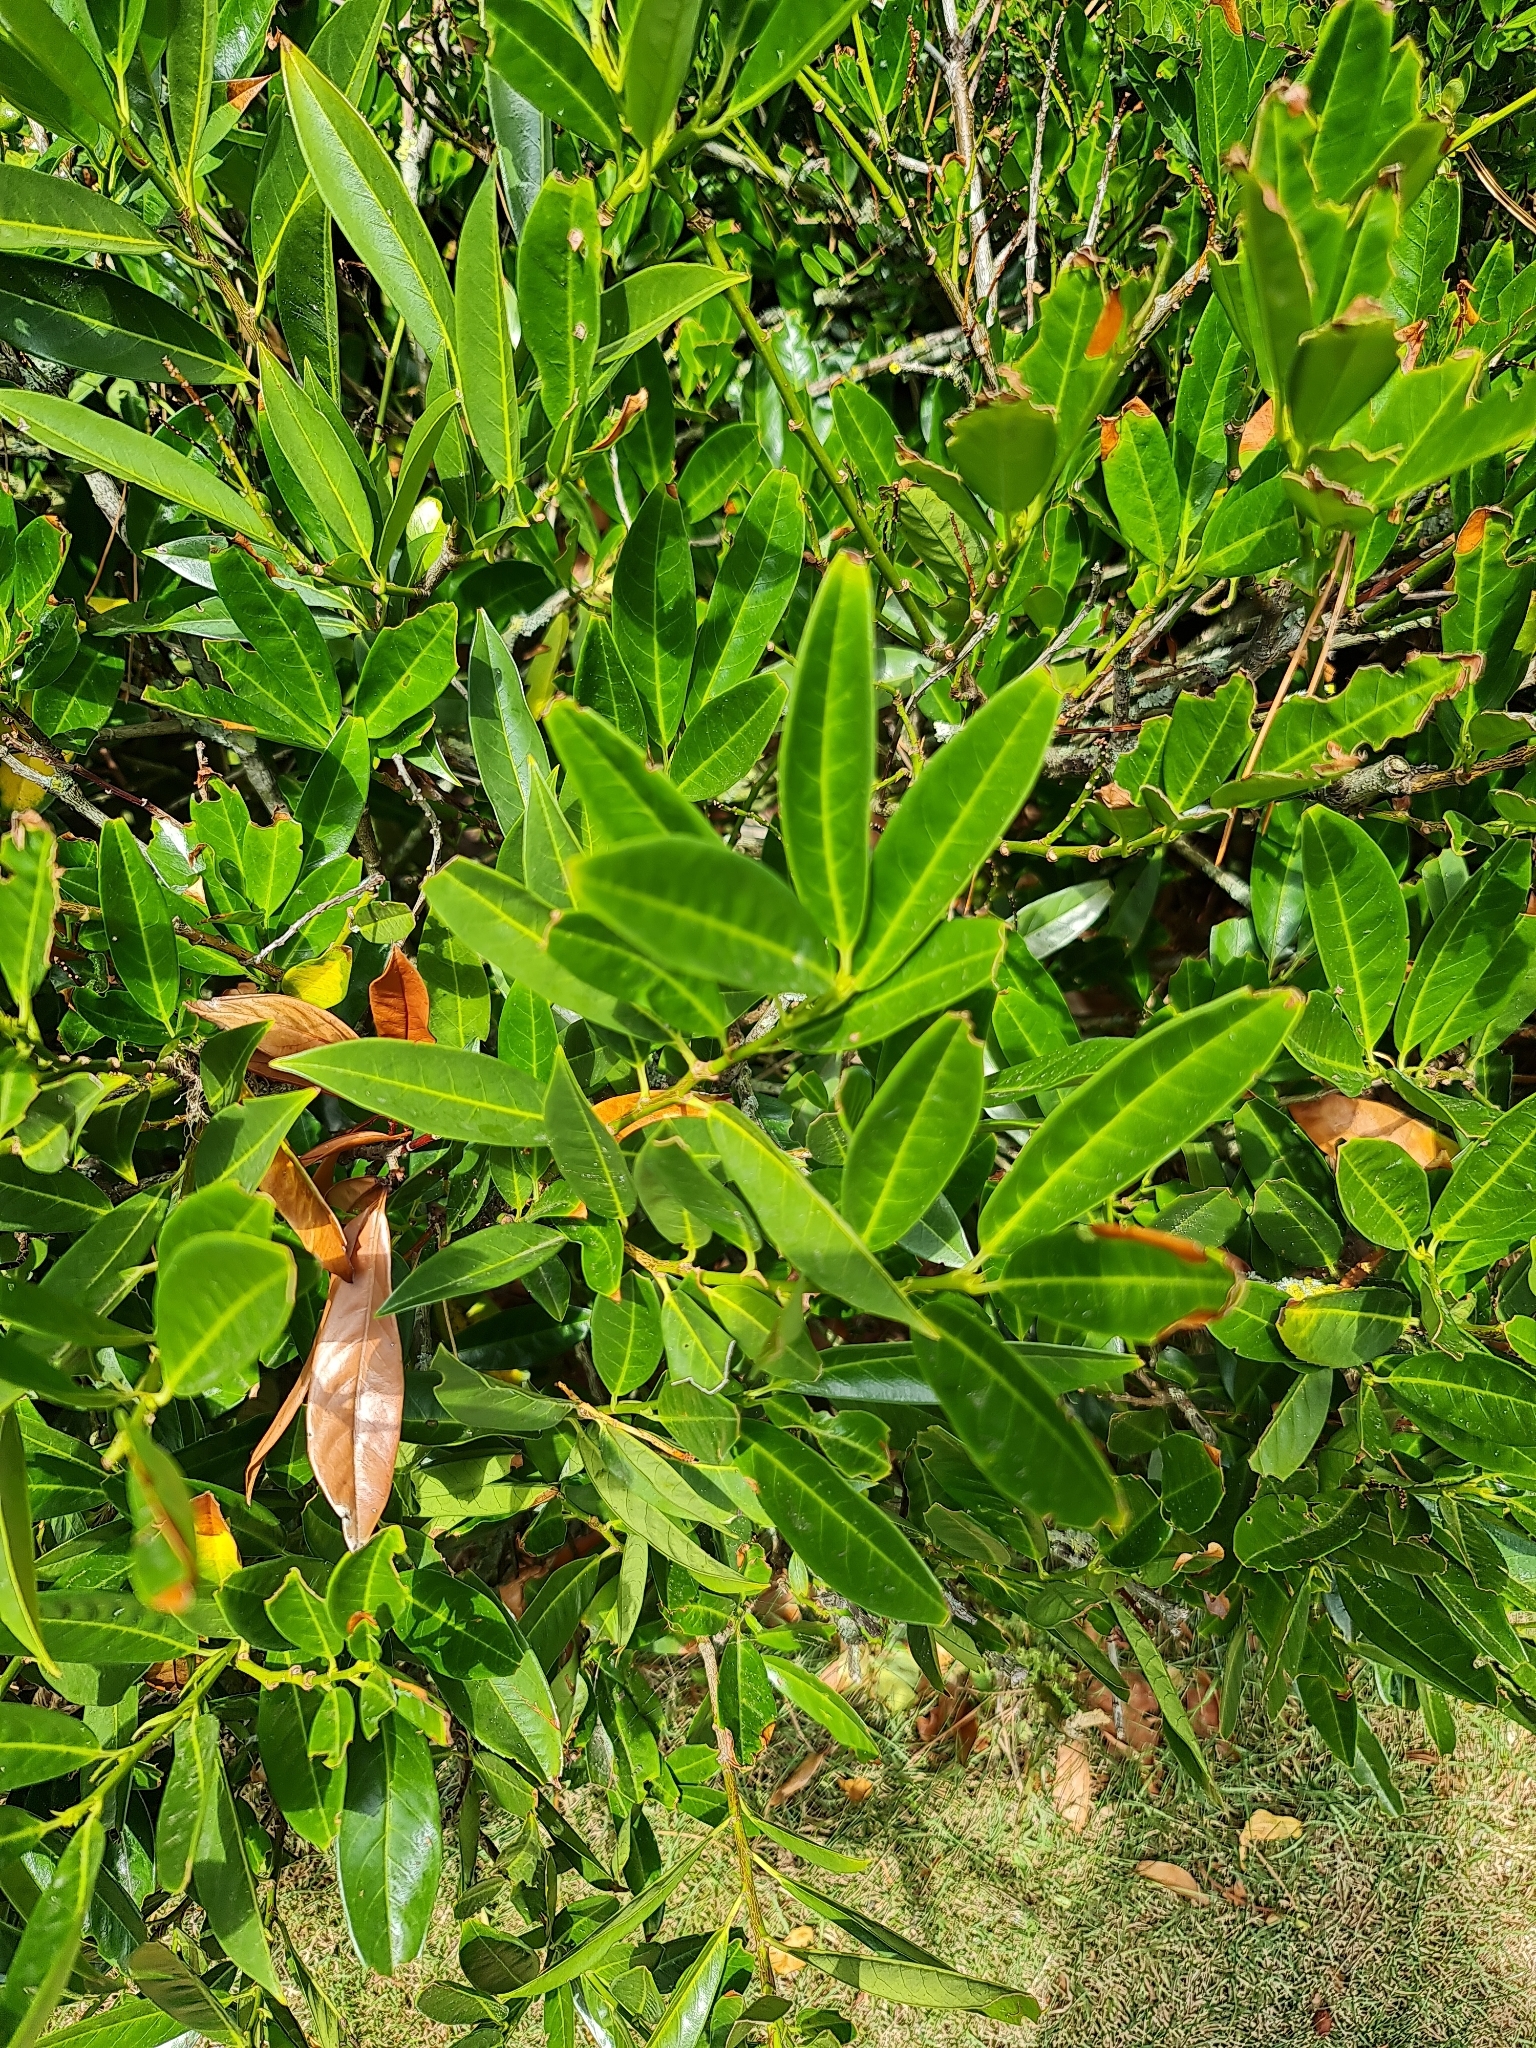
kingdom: Plantae
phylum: Tracheophyta
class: Magnoliopsida
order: Rosales
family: Rosaceae
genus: Prunus
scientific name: Prunus laurocerasus
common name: Cherry laurel
